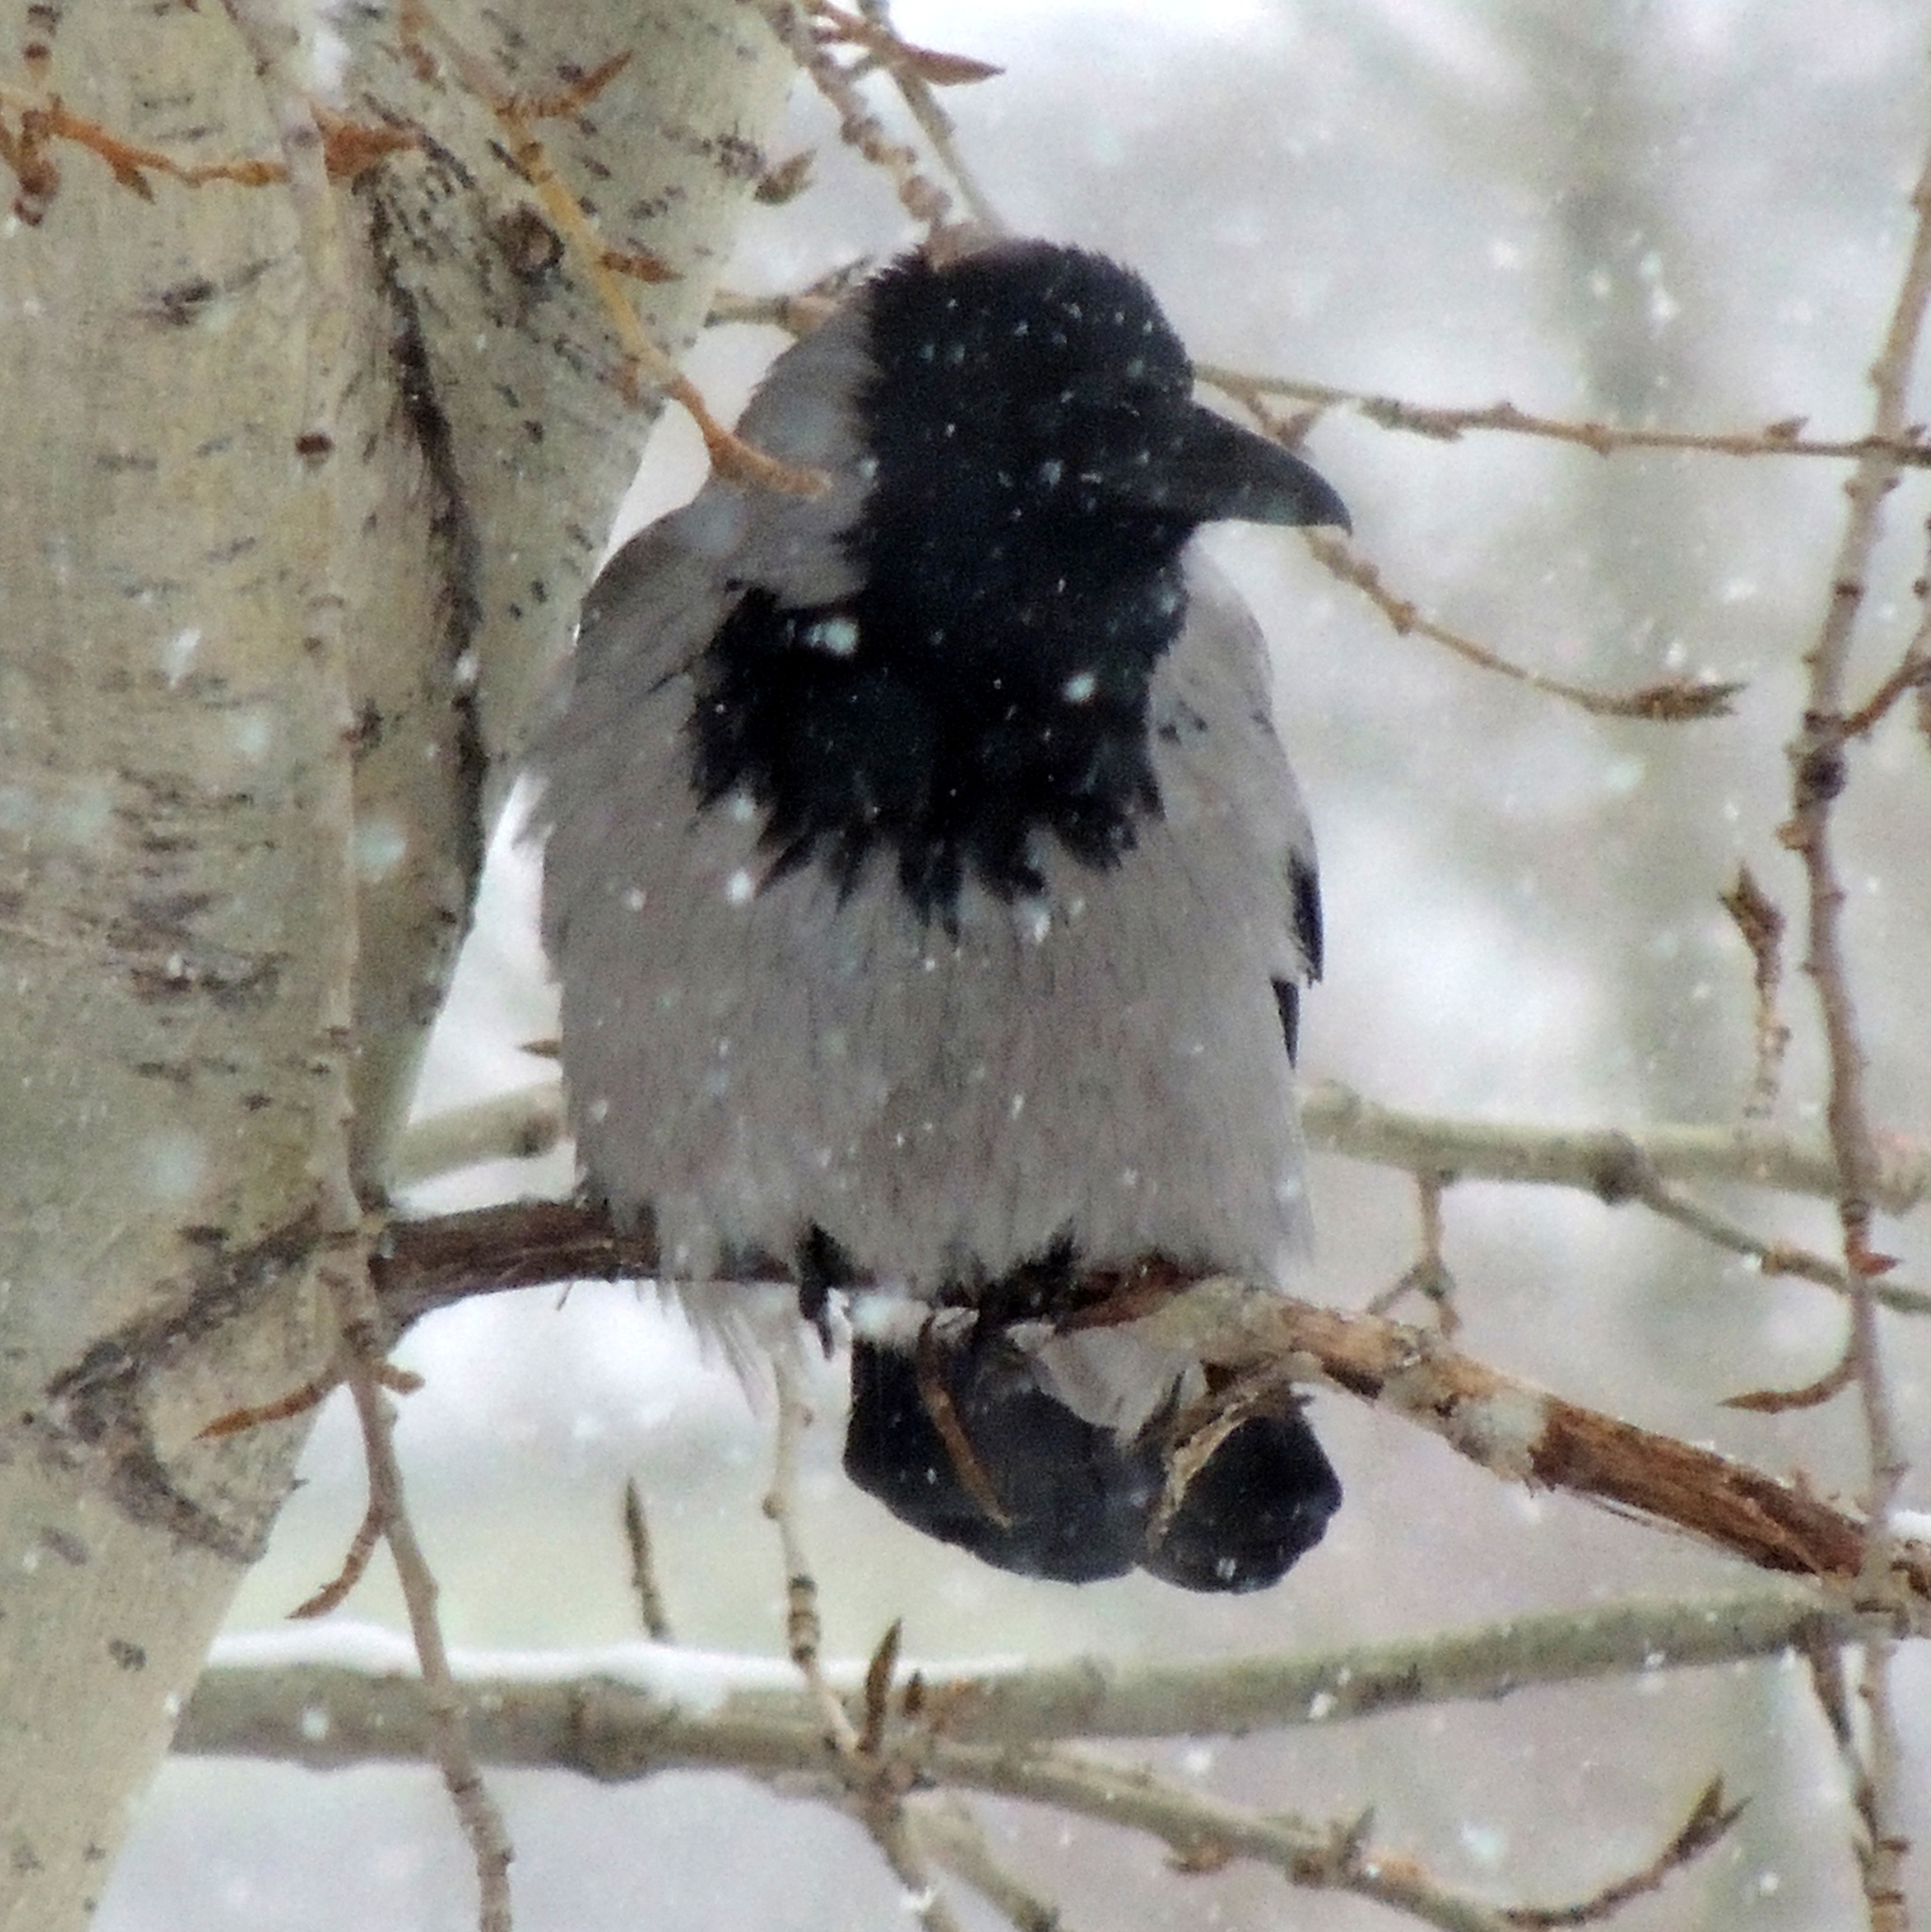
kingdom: Animalia
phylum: Chordata
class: Aves
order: Passeriformes
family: Corvidae
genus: Corvus
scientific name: Corvus cornix
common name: Hooded crow
